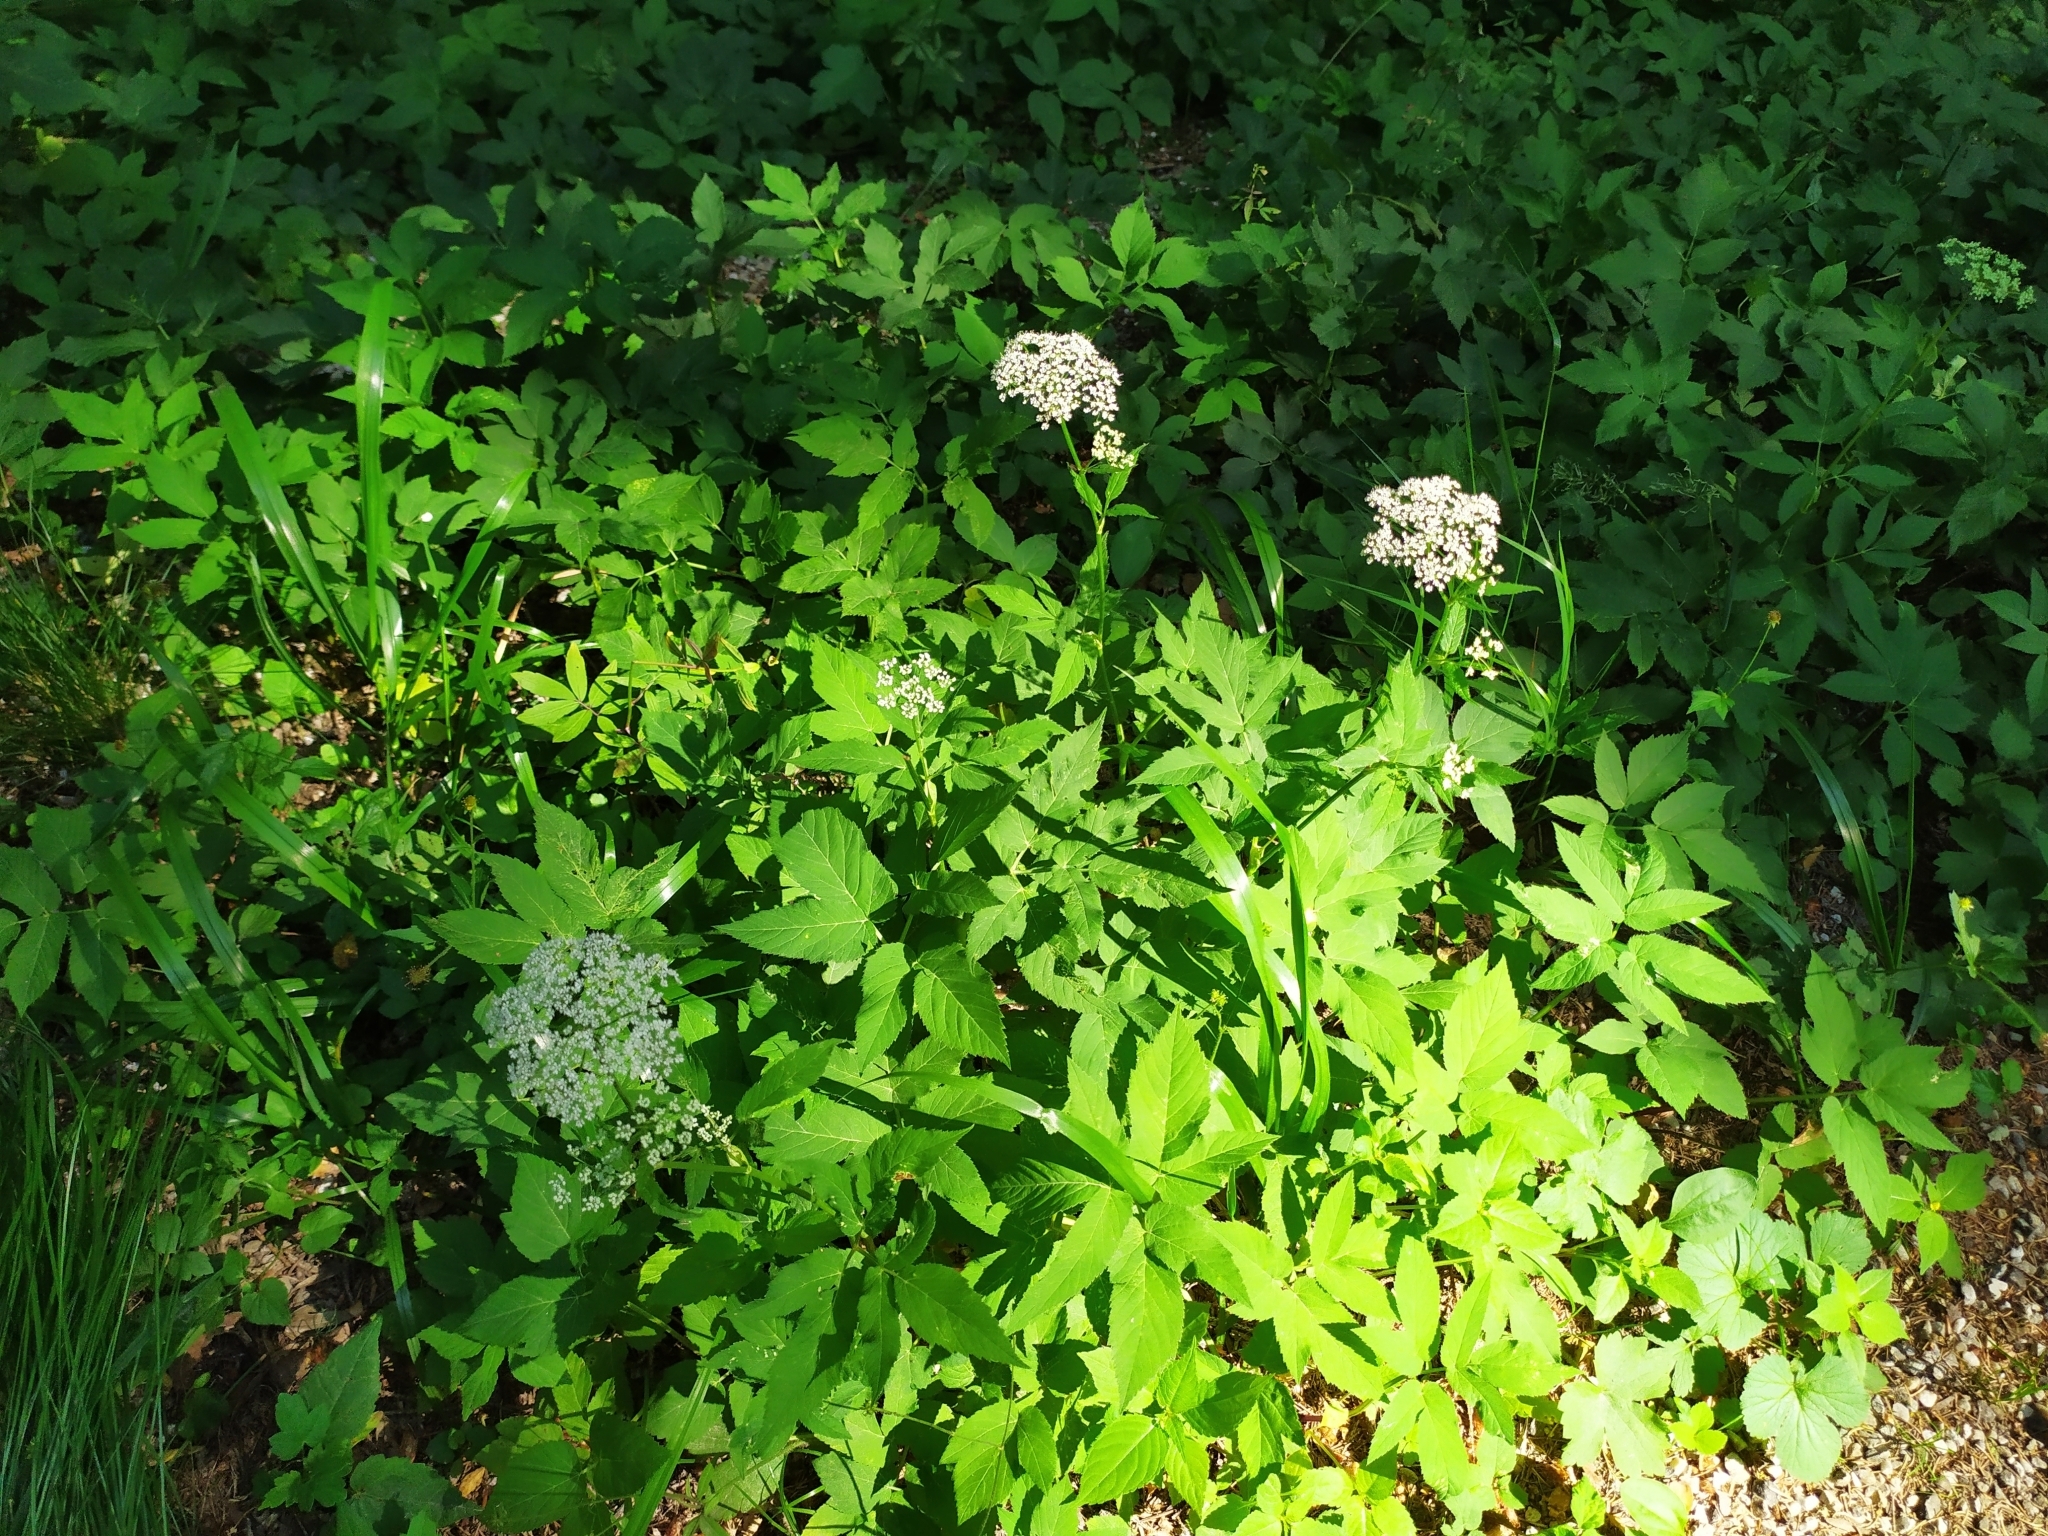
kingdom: Plantae
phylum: Tracheophyta
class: Magnoliopsida
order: Apiales
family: Apiaceae
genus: Aegopodium
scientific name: Aegopodium podagraria
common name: Ground-elder
